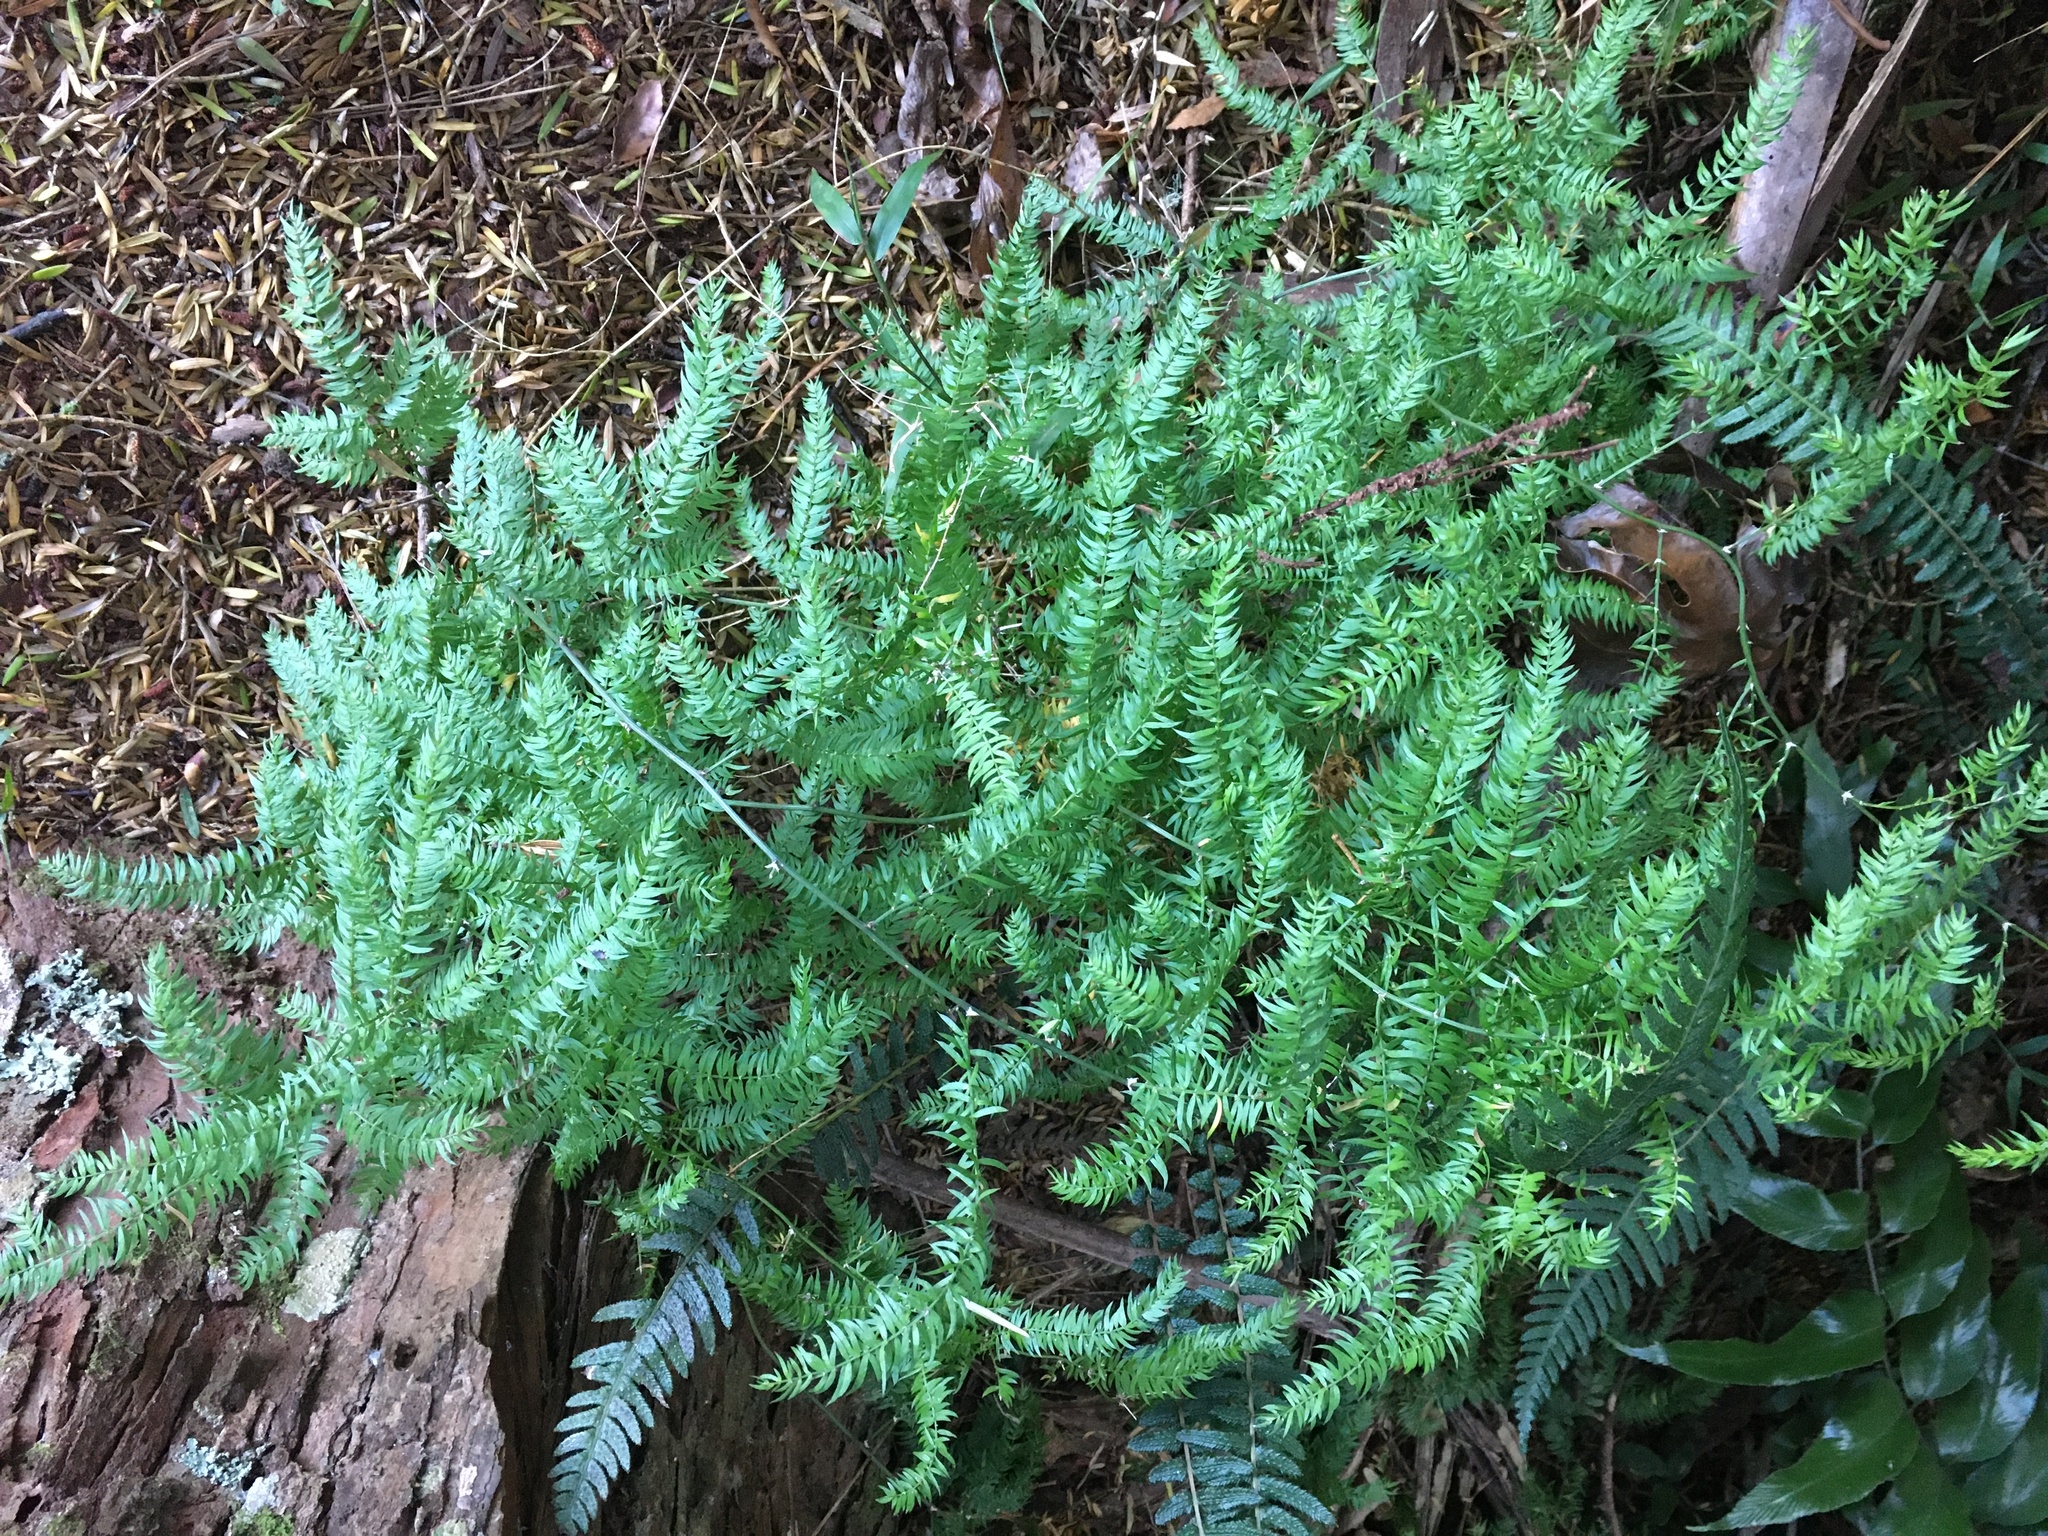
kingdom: Plantae
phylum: Tracheophyta
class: Liliopsida
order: Asparagales
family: Asparagaceae
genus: Asparagus
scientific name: Asparagus scandens
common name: Asparagus-fern
